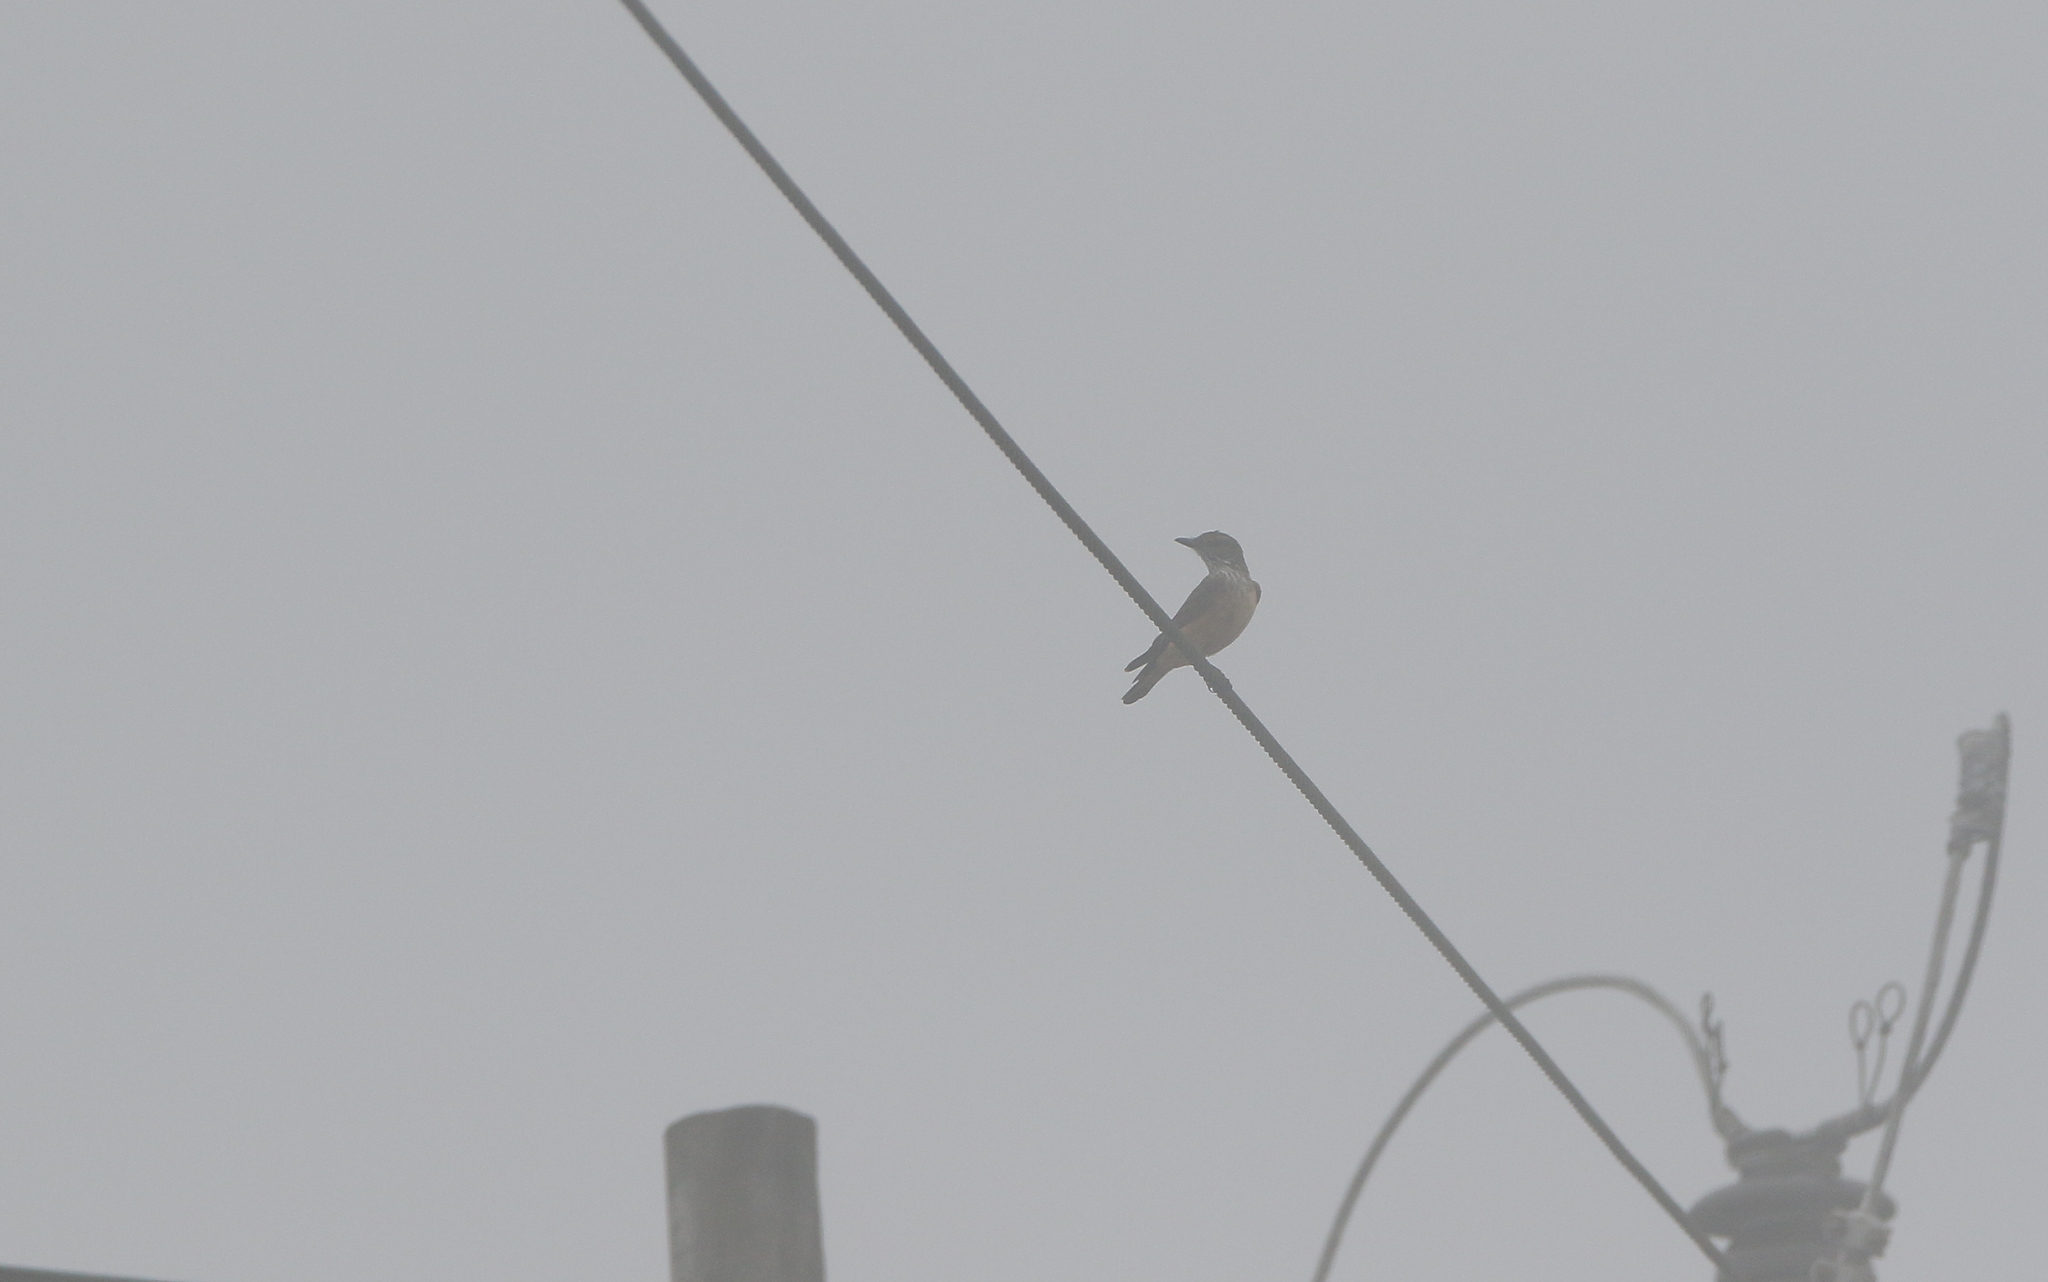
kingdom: Animalia
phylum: Chordata
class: Aves
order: Passeriformes
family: Tyrannidae
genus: Myiotheretes
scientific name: Myiotheretes striaticollis
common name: Streak-throated bush tyrant
